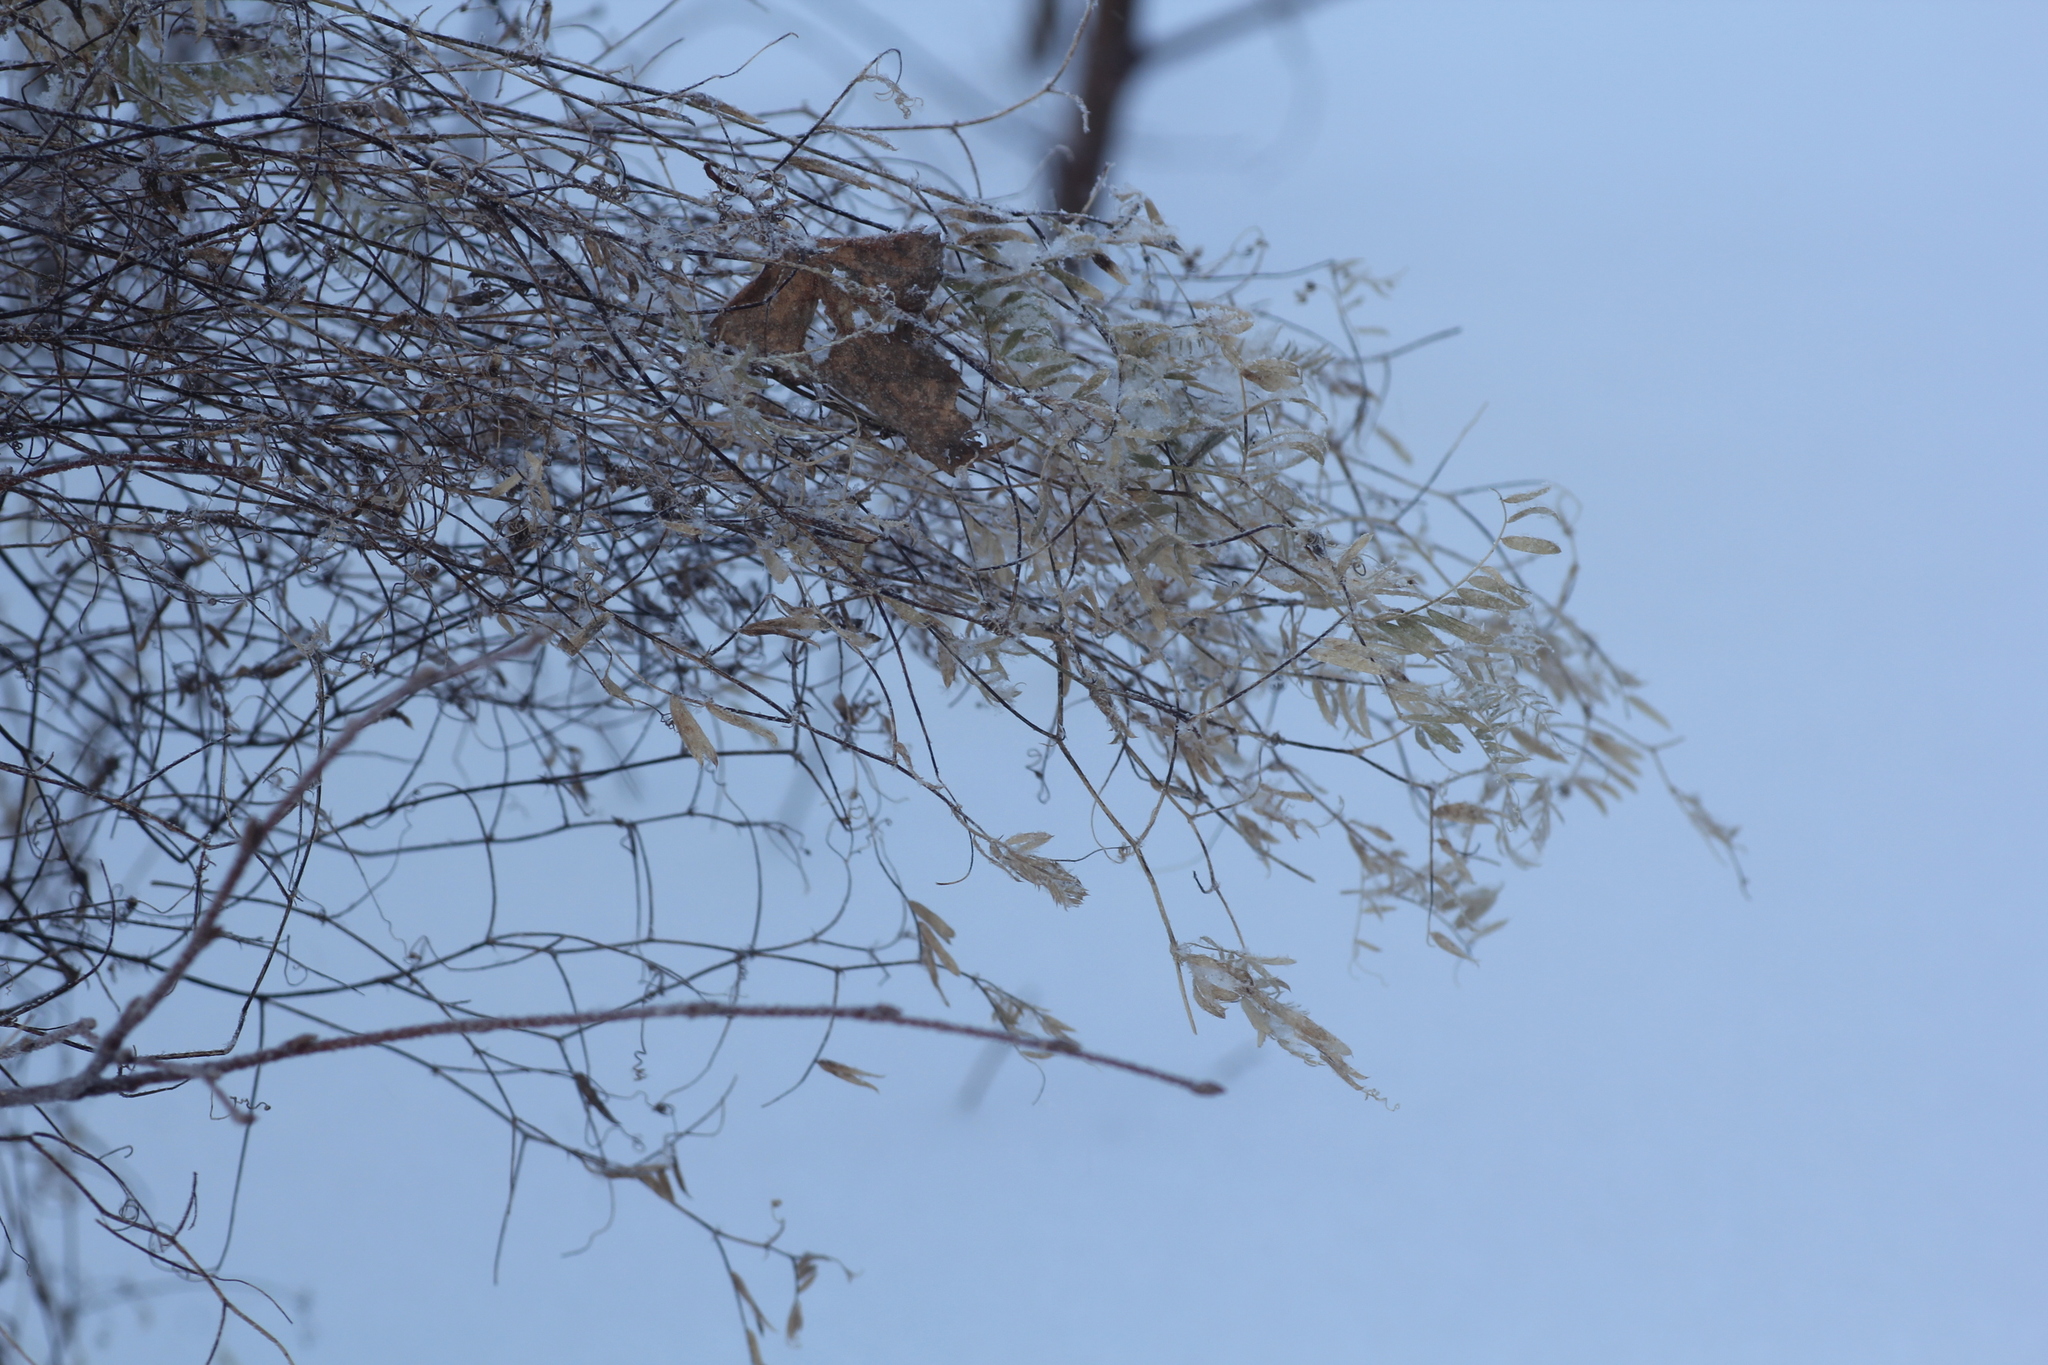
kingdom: Plantae
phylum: Tracheophyta
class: Magnoliopsida
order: Fabales
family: Fabaceae
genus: Vicia
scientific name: Vicia cracca
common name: Bird vetch
